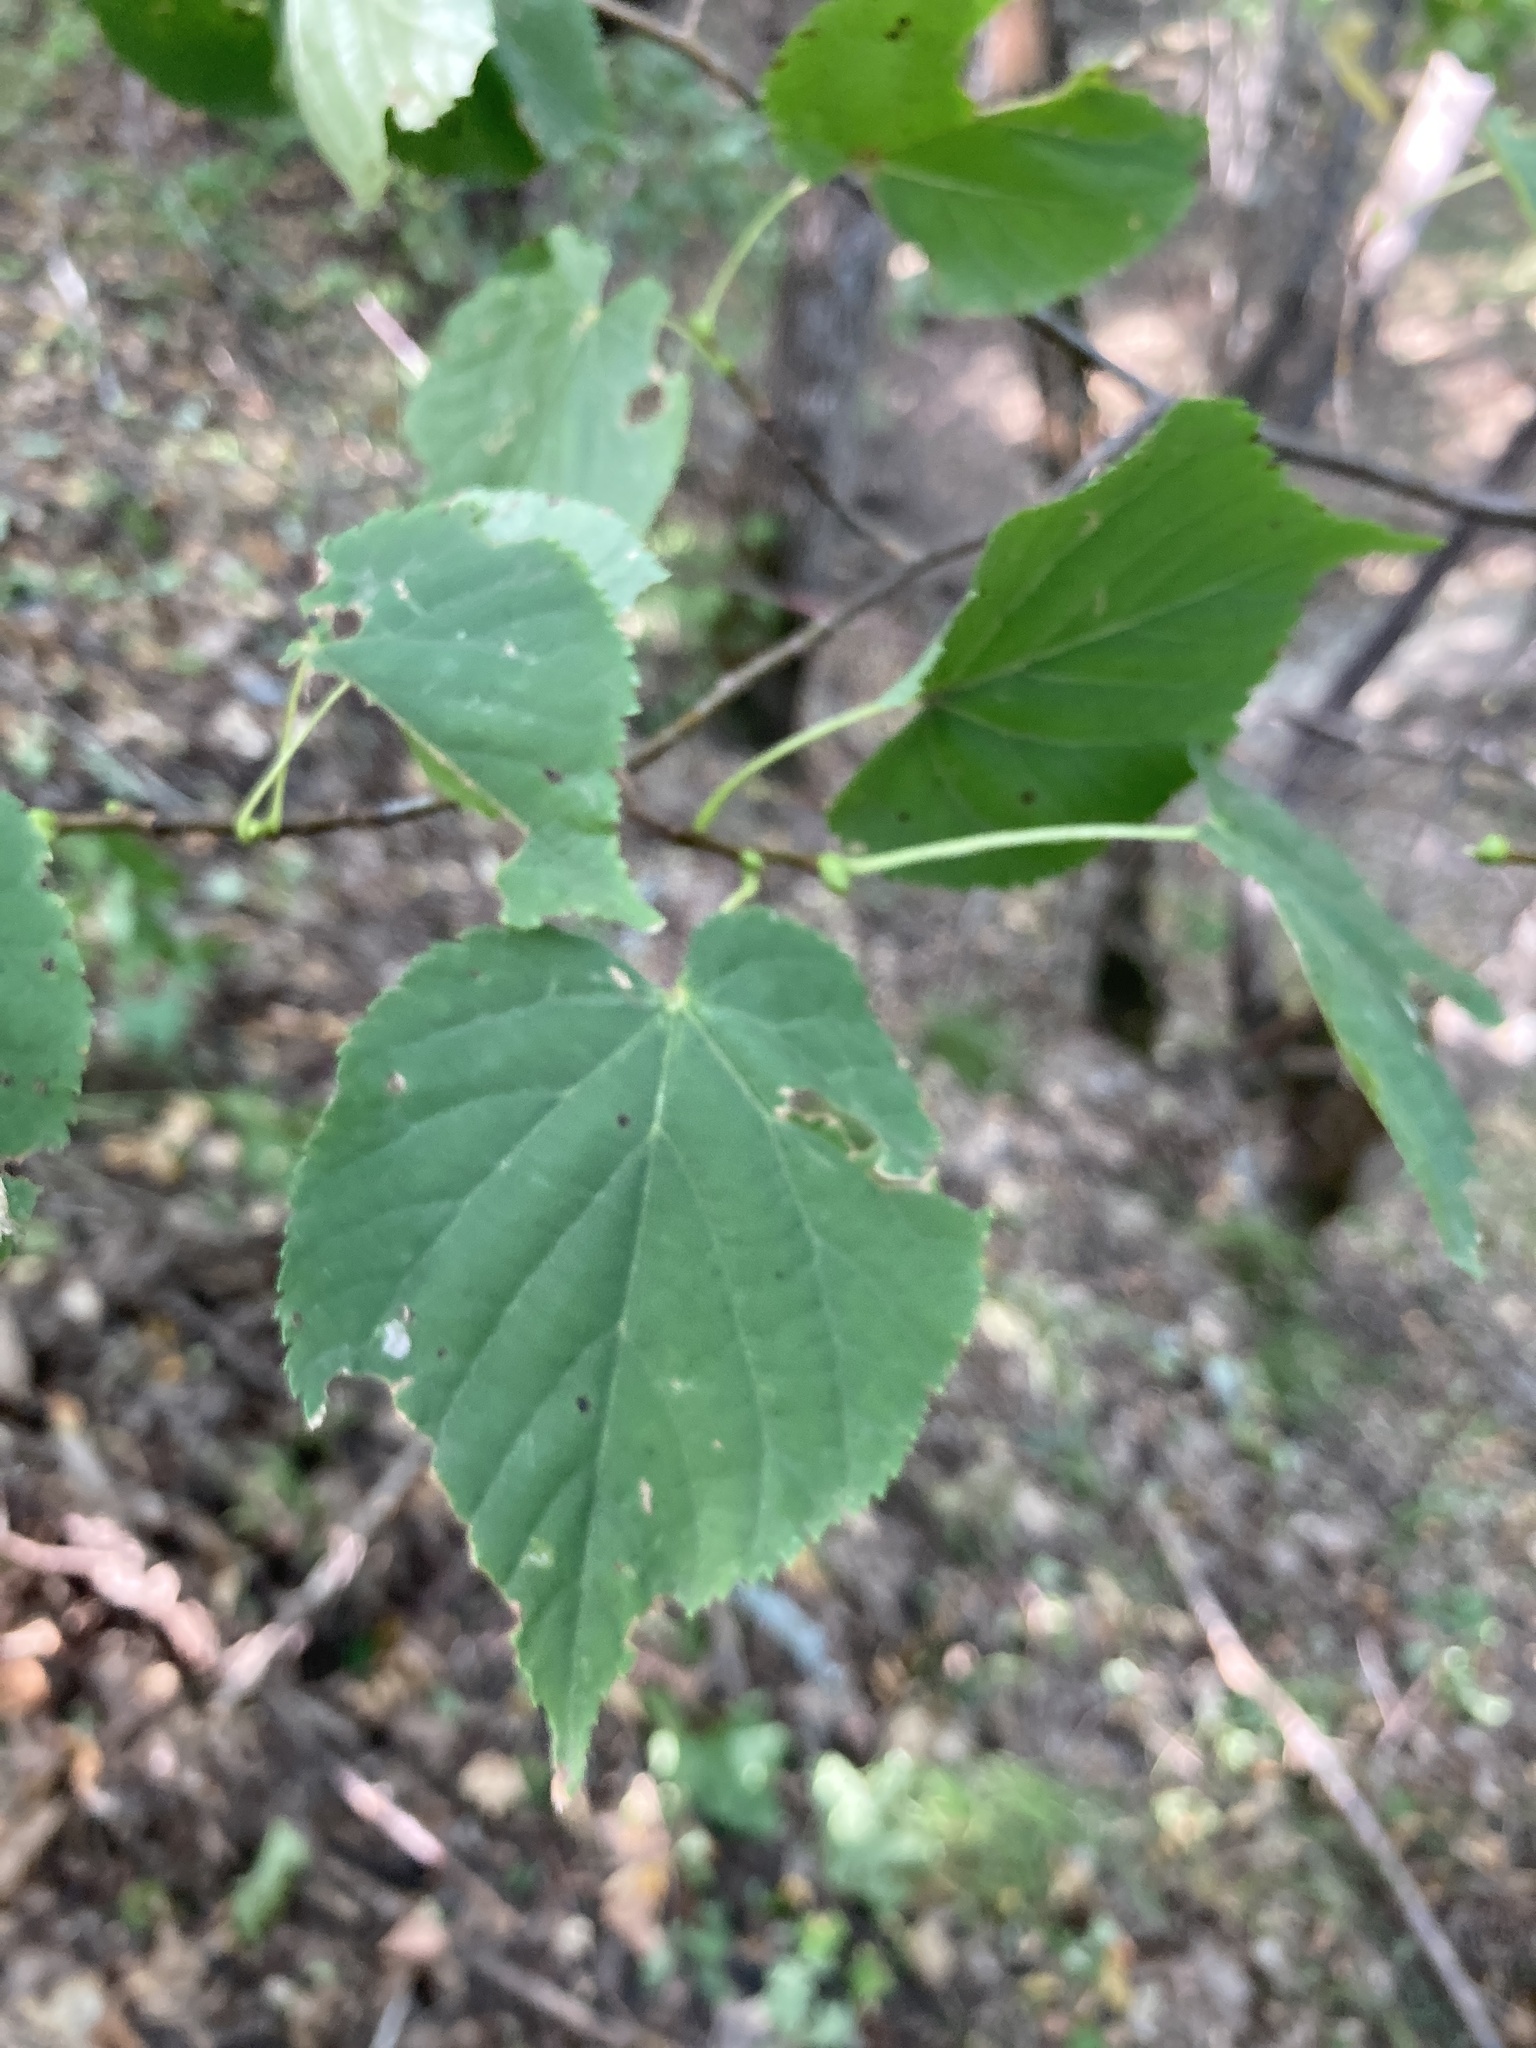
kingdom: Plantae
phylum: Tracheophyta
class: Magnoliopsida
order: Malvales
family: Malvaceae
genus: Tilia
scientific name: Tilia cordata
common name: Small-leaved lime
